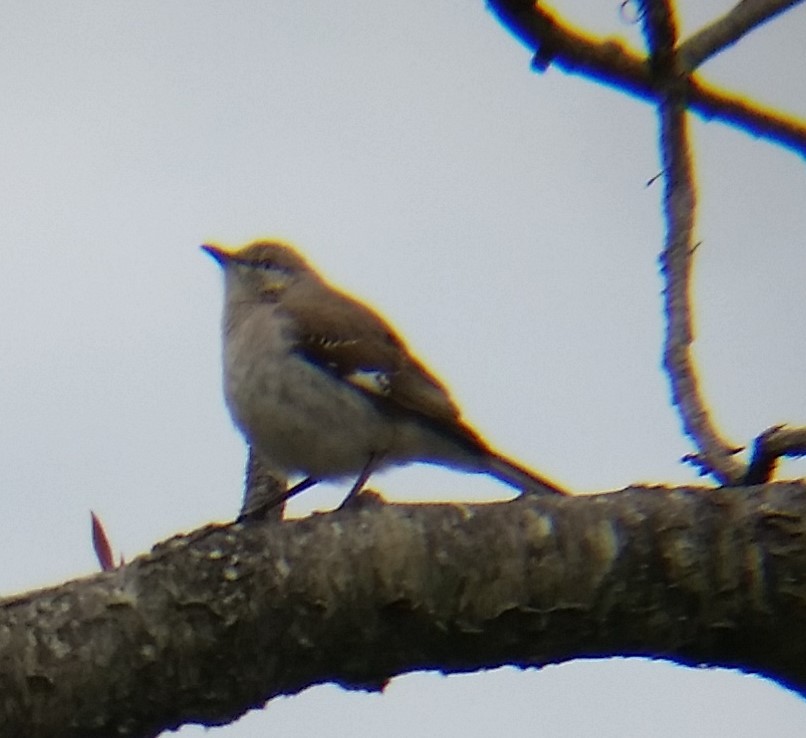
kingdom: Animalia
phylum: Chordata
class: Aves
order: Passeriformes
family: Mimidae
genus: Mimus
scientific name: Mimus polyglottos
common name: Northern mockingbird
